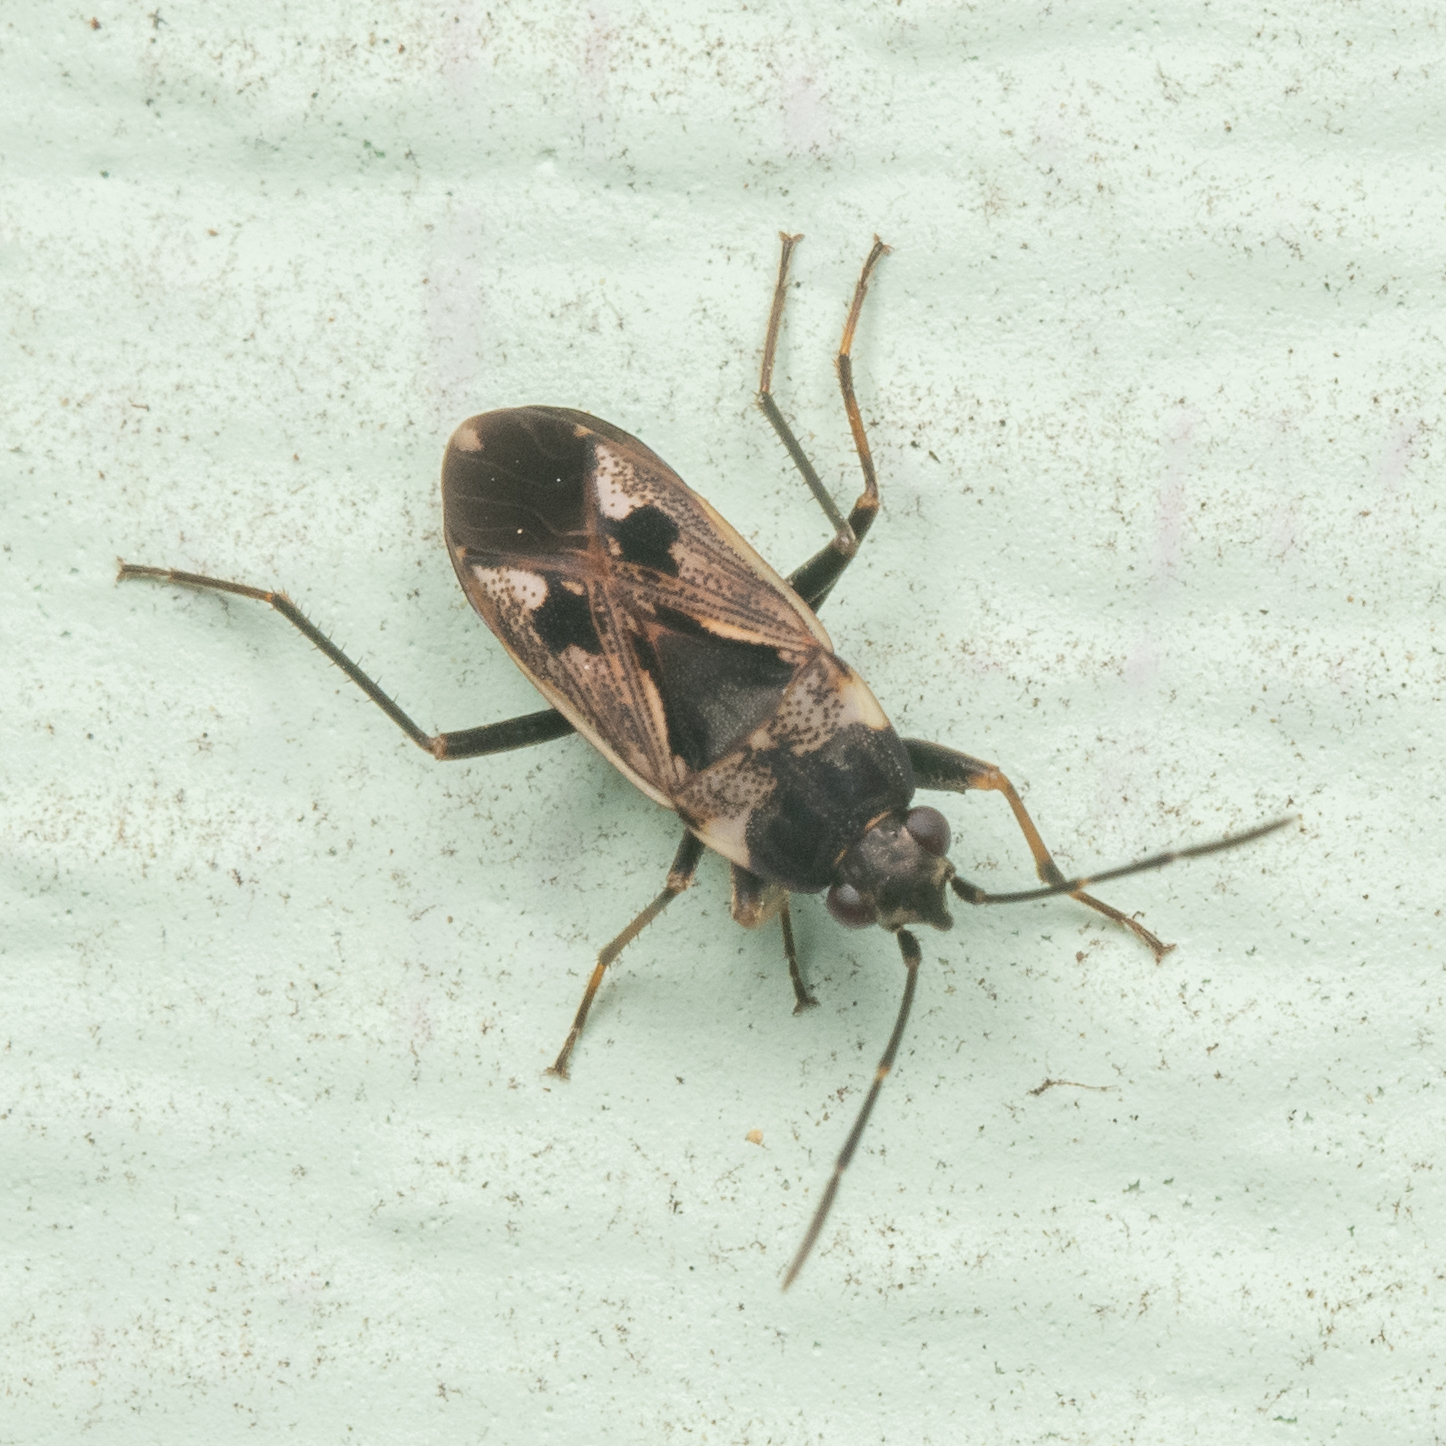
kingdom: Animalia
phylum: Arthropoda
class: Insecta
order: Hemiptera
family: Rhyparochromidae
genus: Rhyparochromus
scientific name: Rhyparochromus vulgaris
